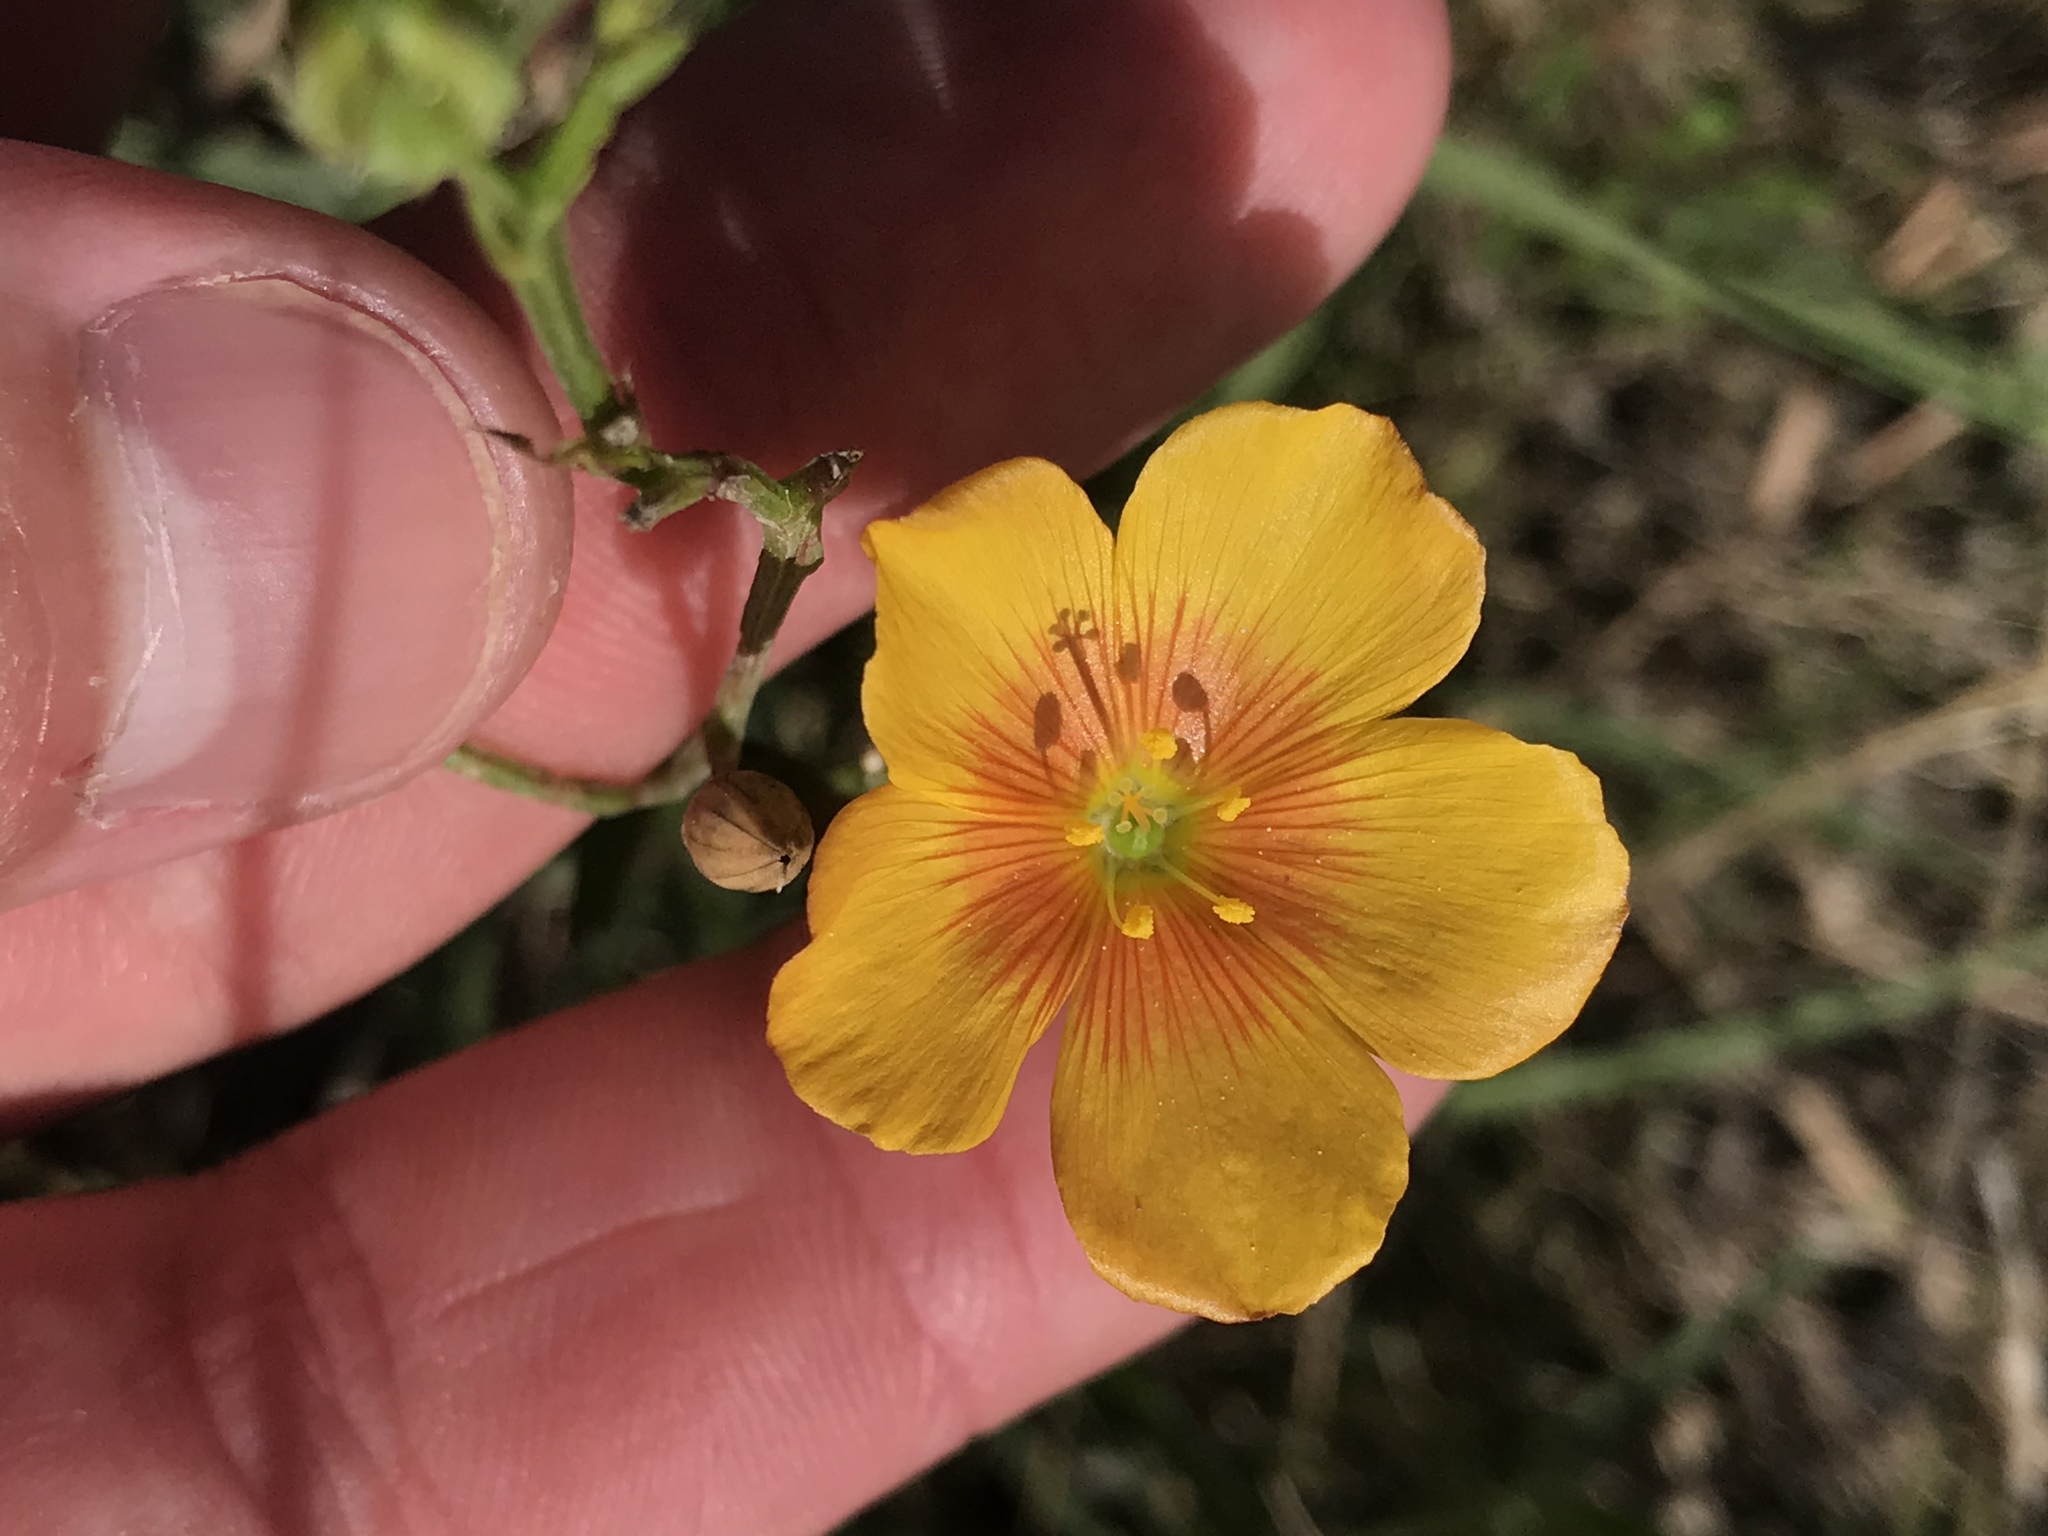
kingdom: Plantae
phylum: Tracheophyta
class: Magnoliopsida
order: Malpighiales
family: Linaceae
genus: Linum
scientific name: Linum rigidum
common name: Stiff-stem flax
